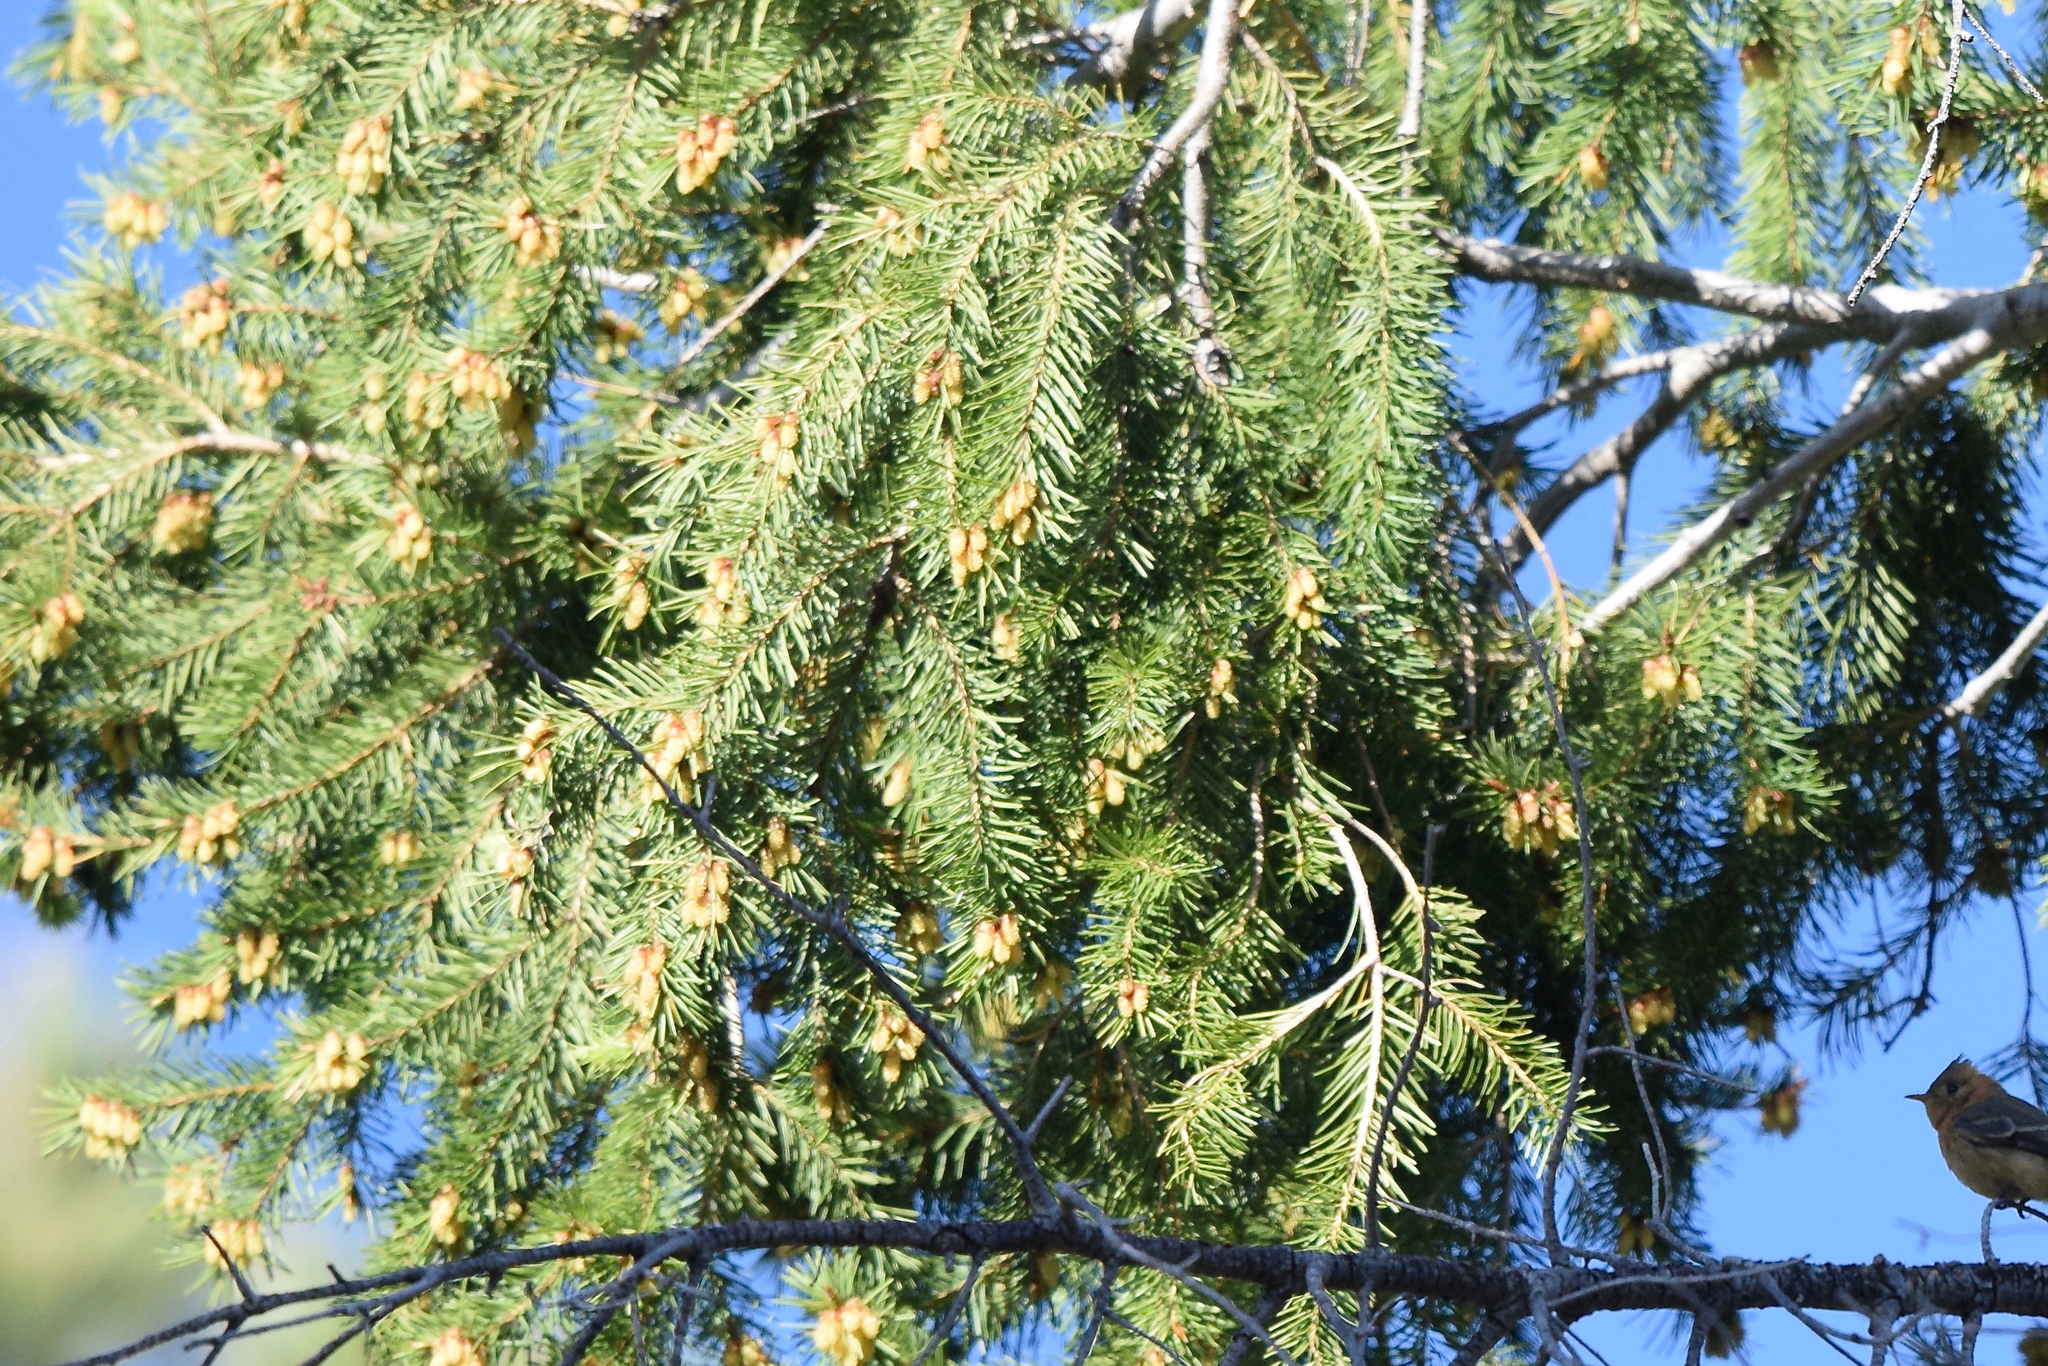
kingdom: Plantae
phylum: Tracheophyta
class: Pinopsida
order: Pinales
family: Pinaceae
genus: Pseudotsuga
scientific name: Pseudotsuga menziesii
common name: Douglas fir
